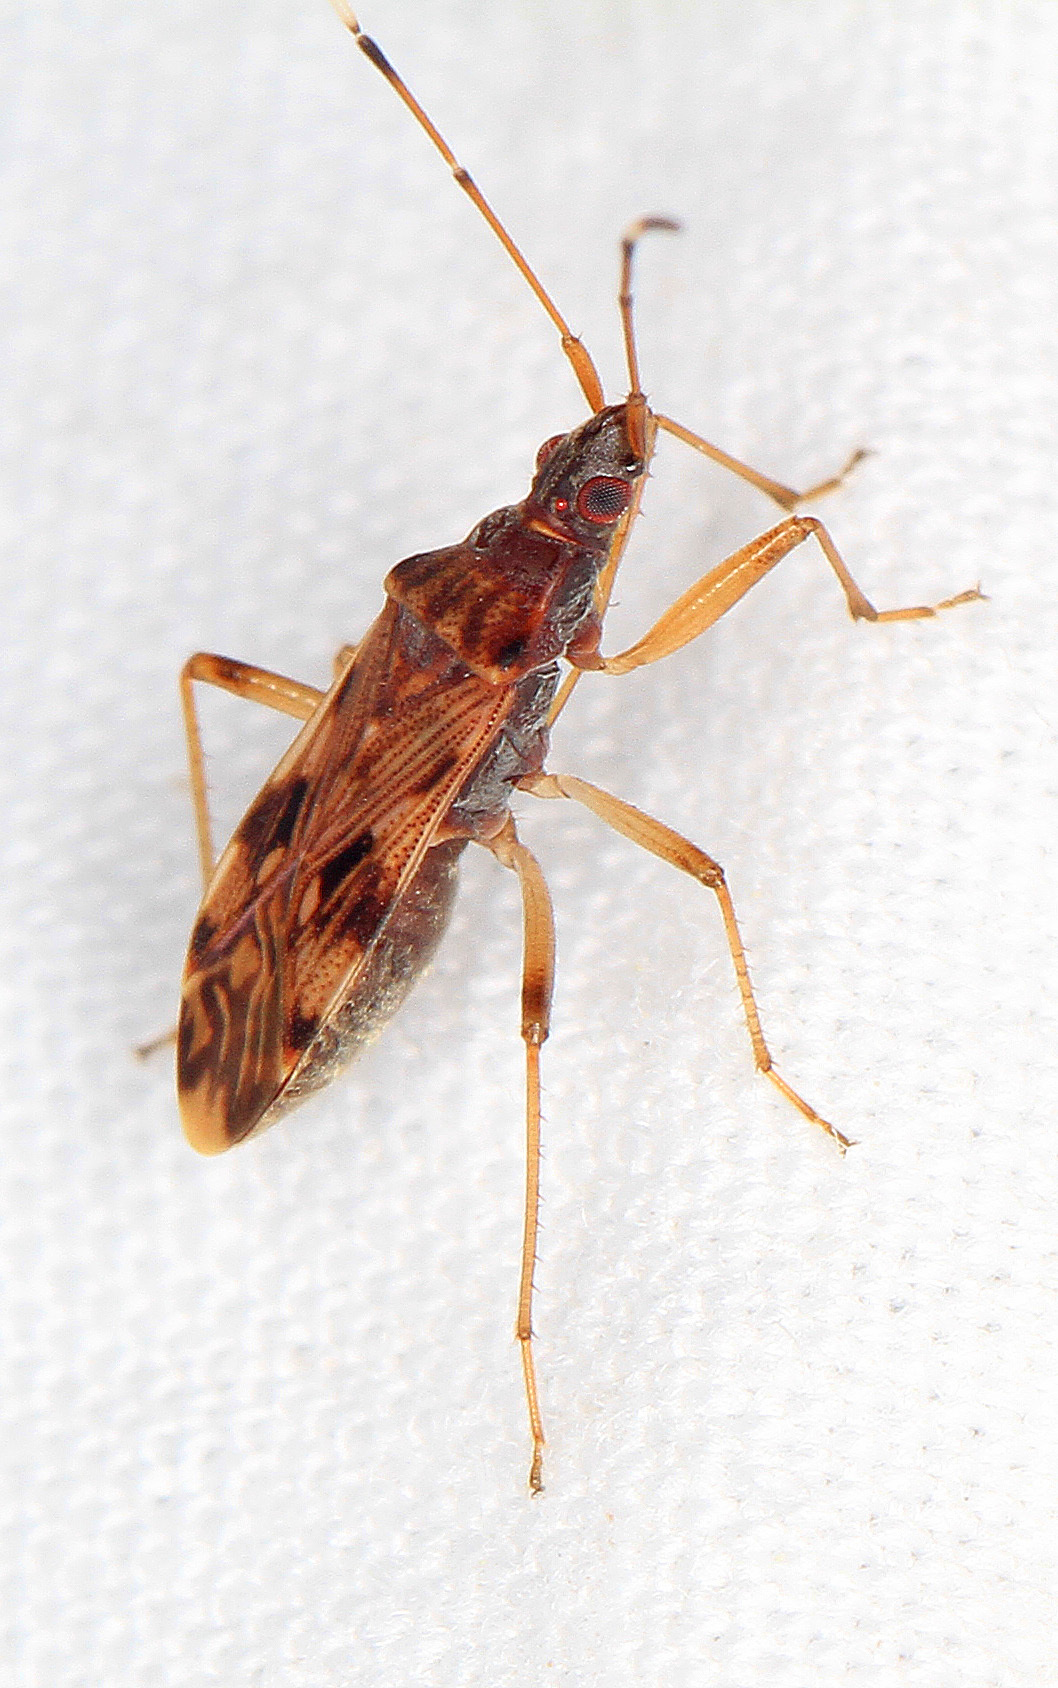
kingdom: Animalia
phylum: Arthropoda
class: Insecta
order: Hemiptera
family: Rhyparochromidae
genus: Ozophora
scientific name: Ozophora picturata
